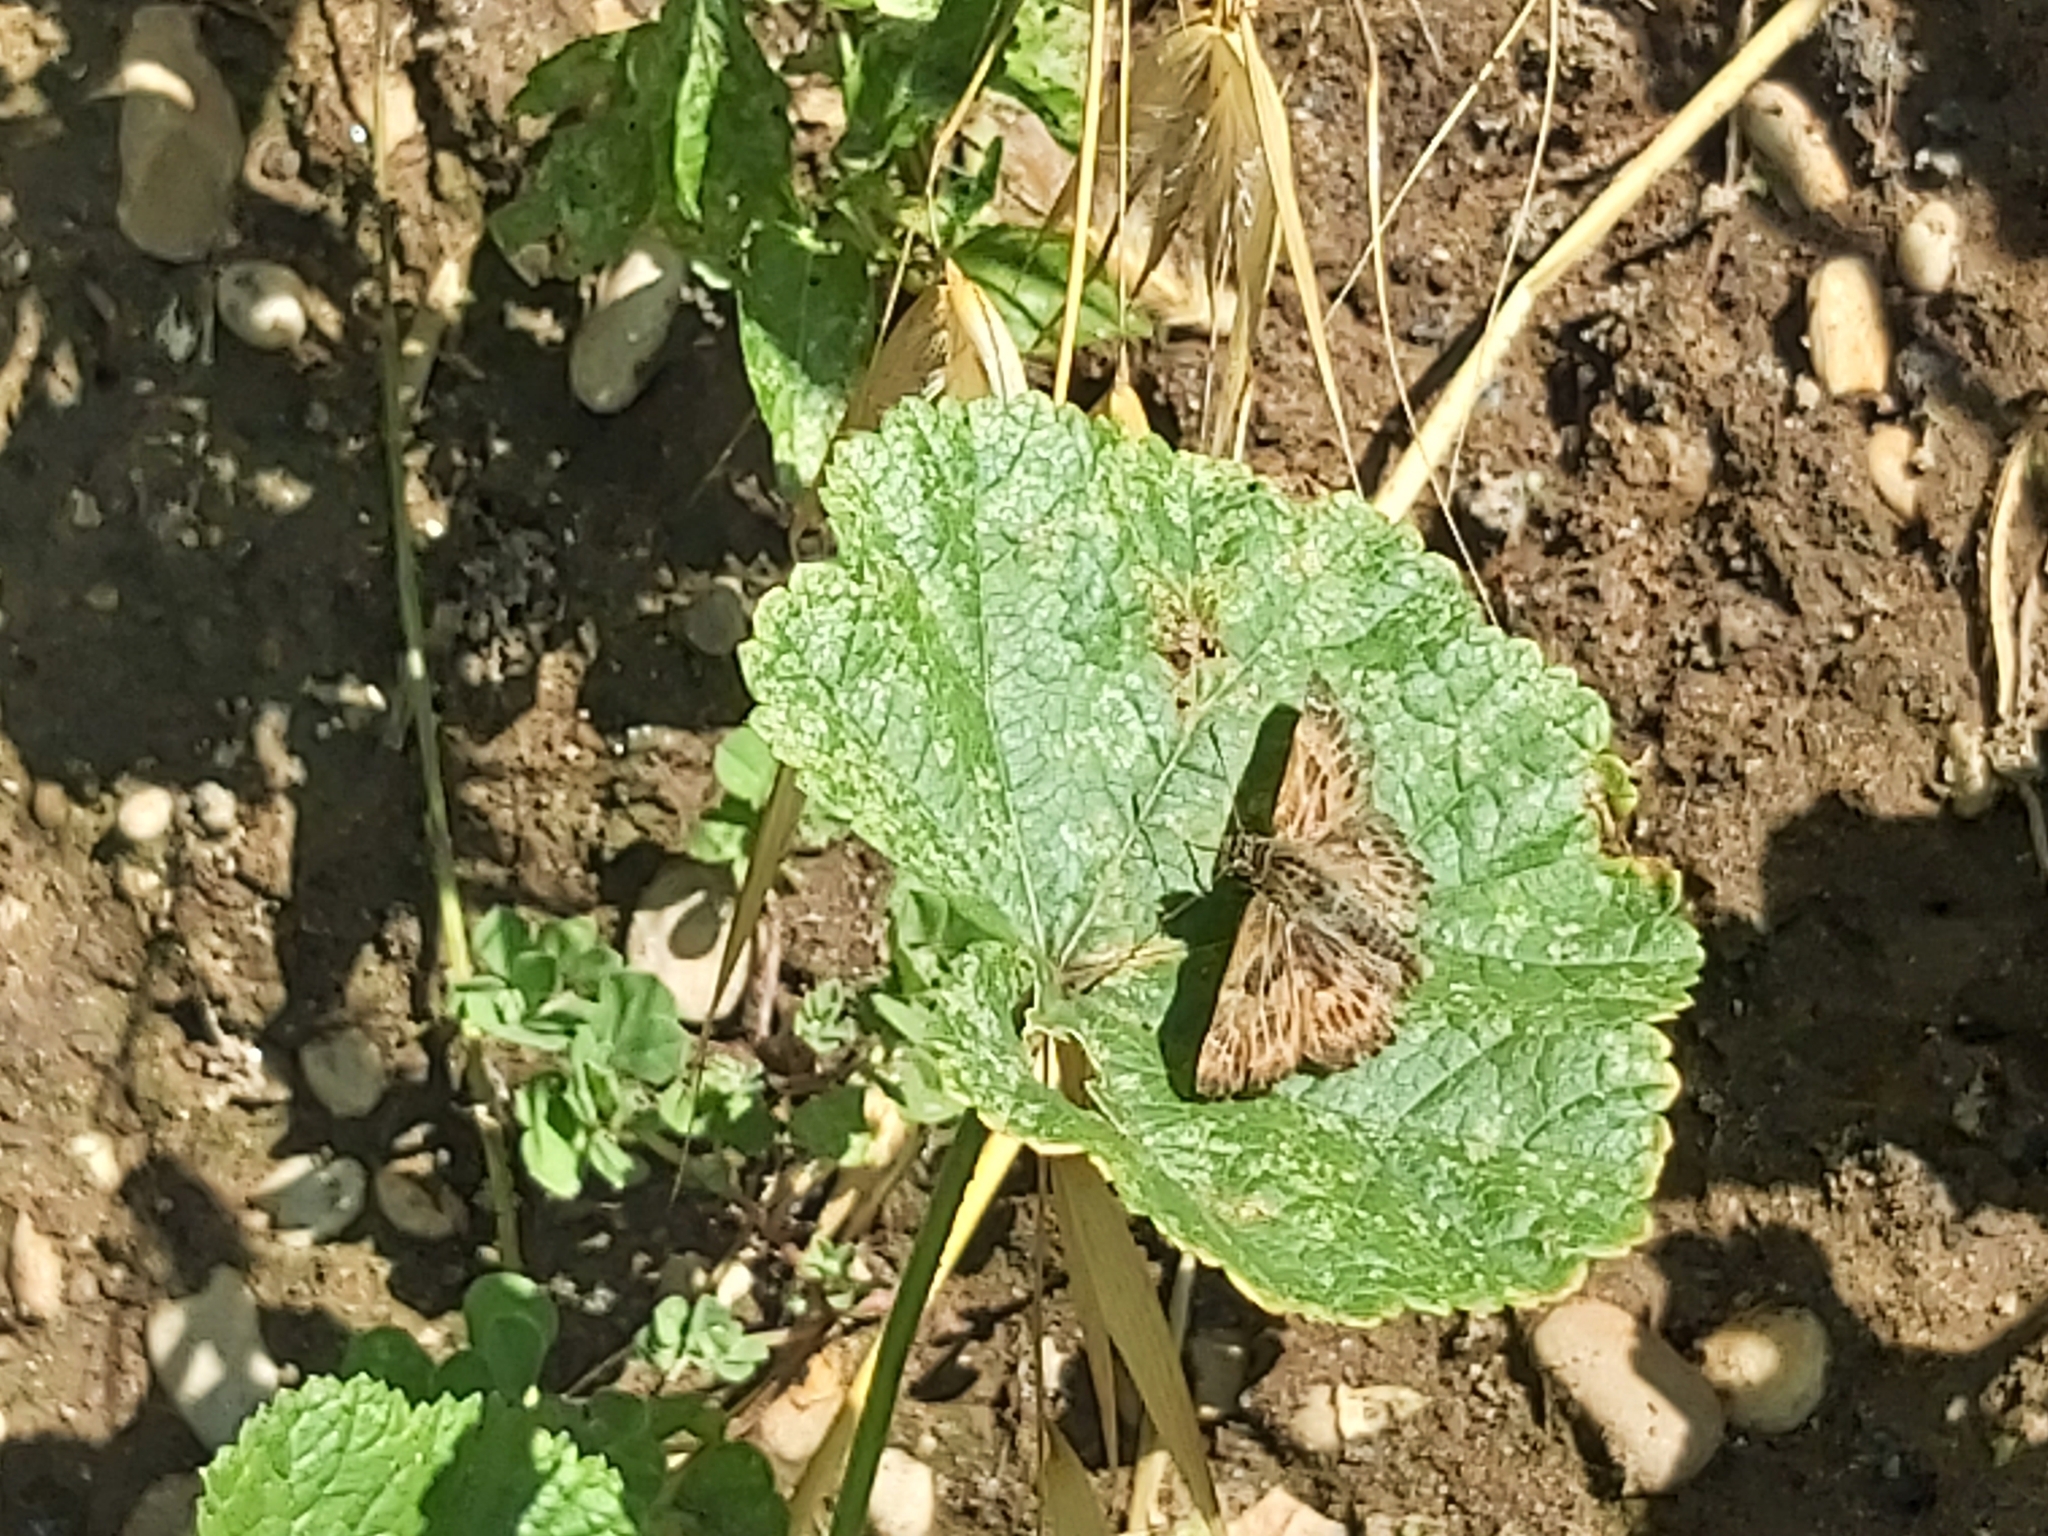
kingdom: Animalia
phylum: Arthropoda
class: Insecta
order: Lepidoptera
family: Hesperiidae
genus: Carcharodus
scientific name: Carcharodus alceae
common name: Mallow skipper
